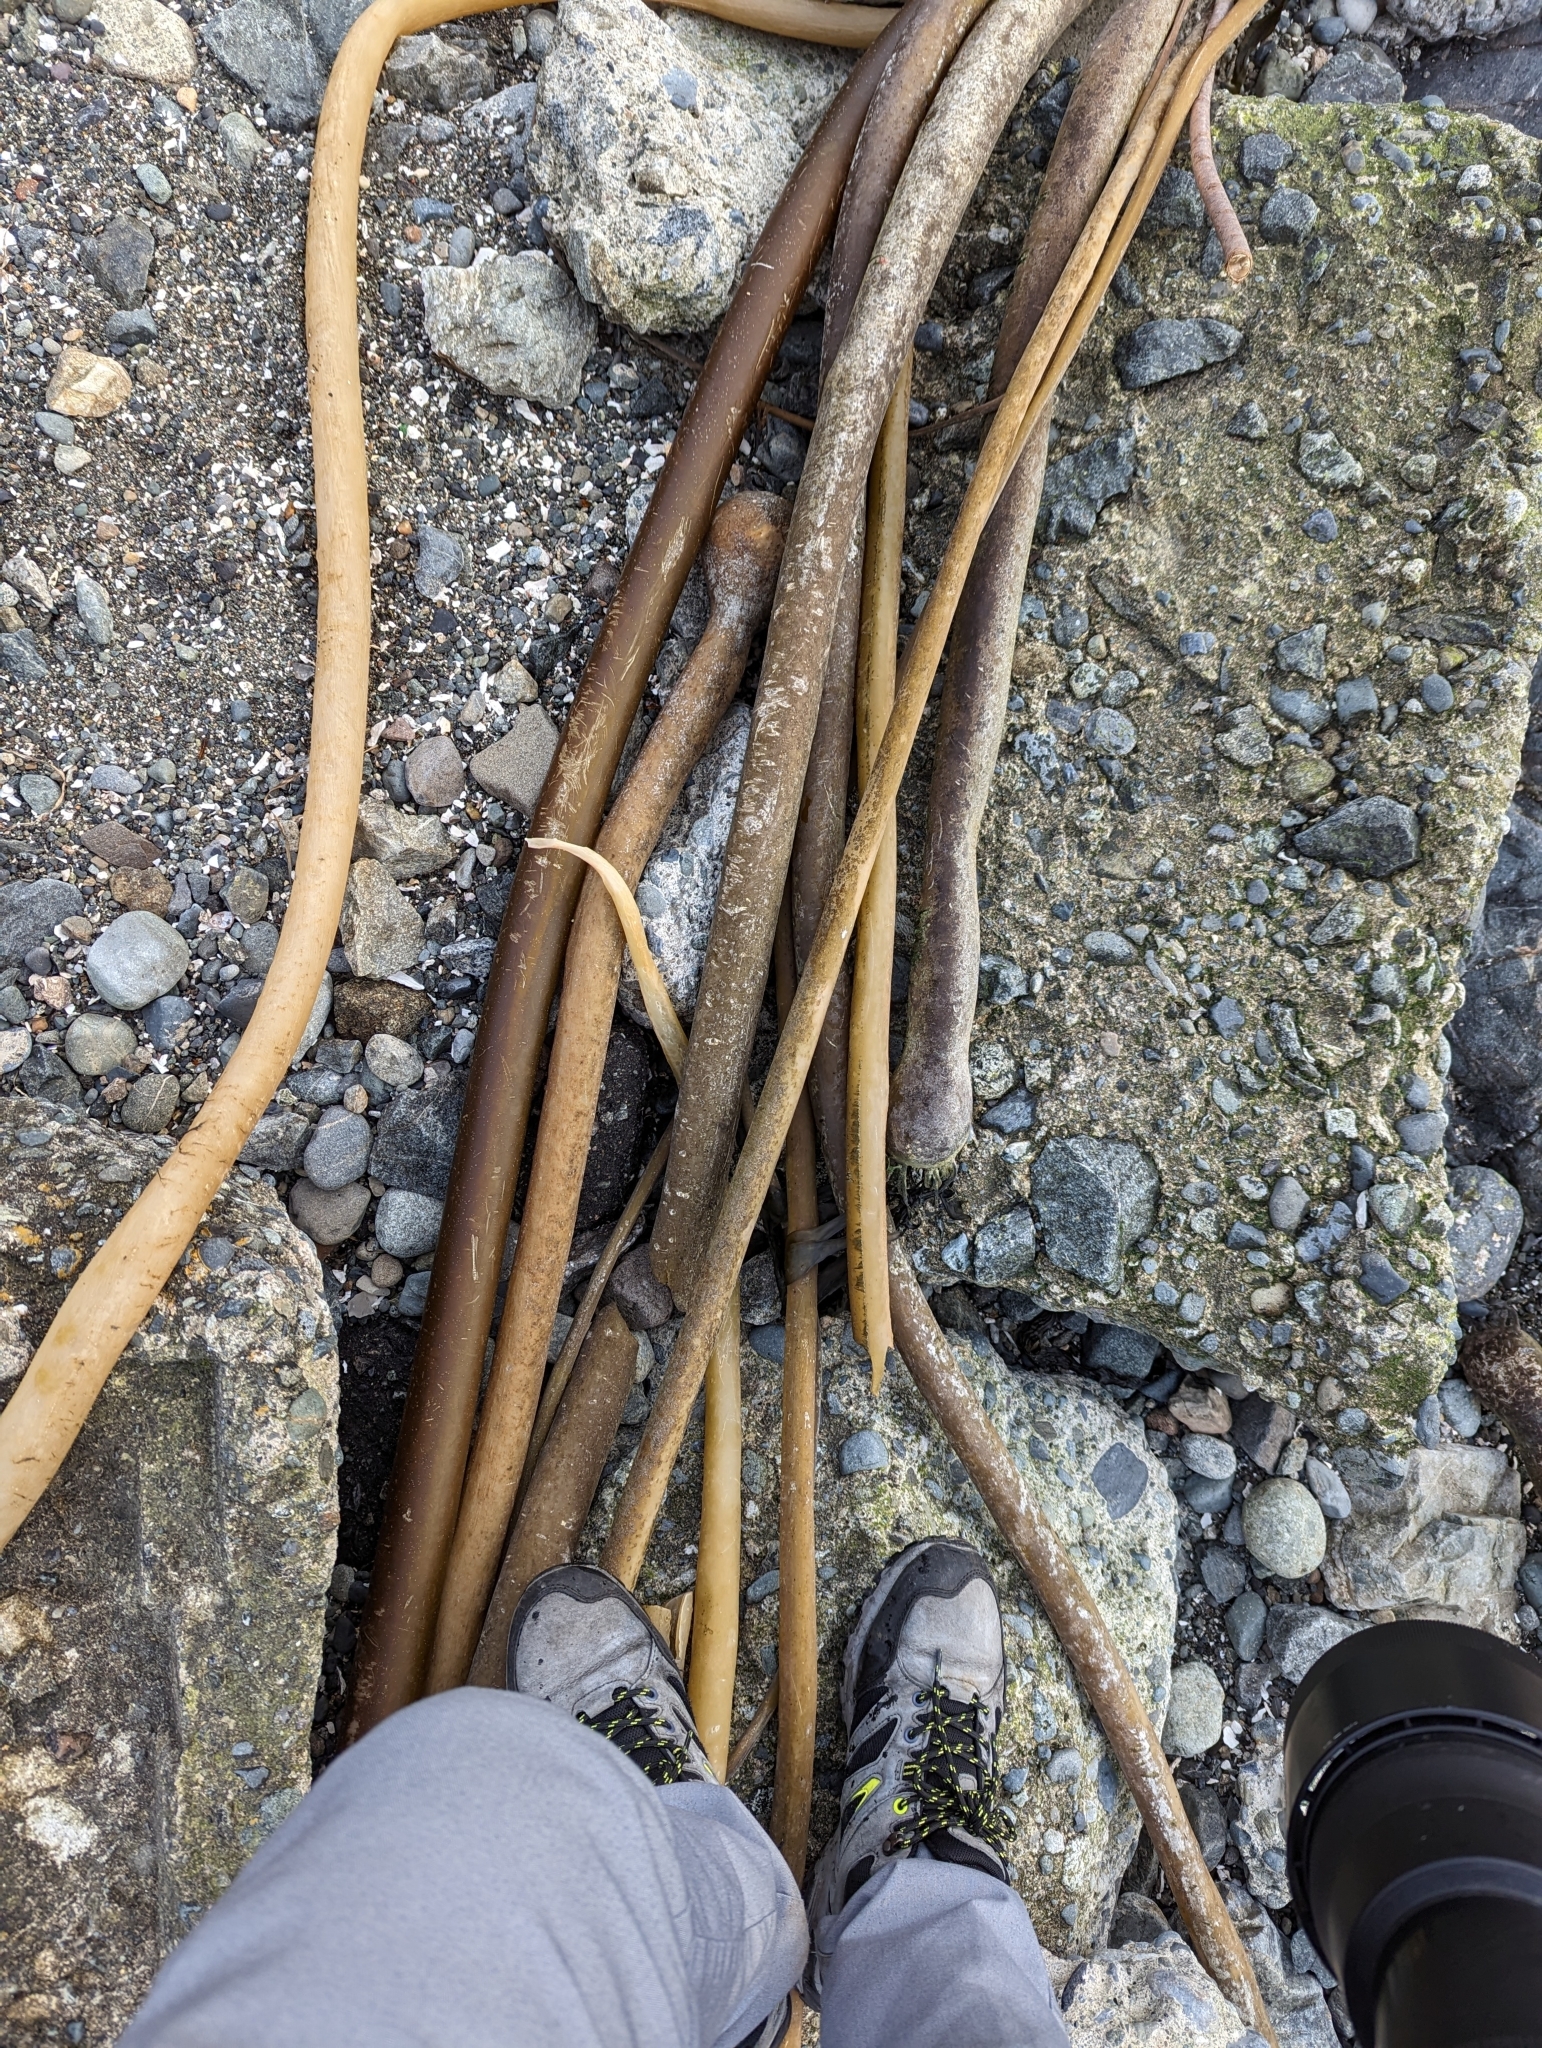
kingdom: Chromista
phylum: Ochrophyta
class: Phaeophyceae
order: Laminariales
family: Laminariaceae
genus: Nereocystis
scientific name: Nereocystis luetkeana
